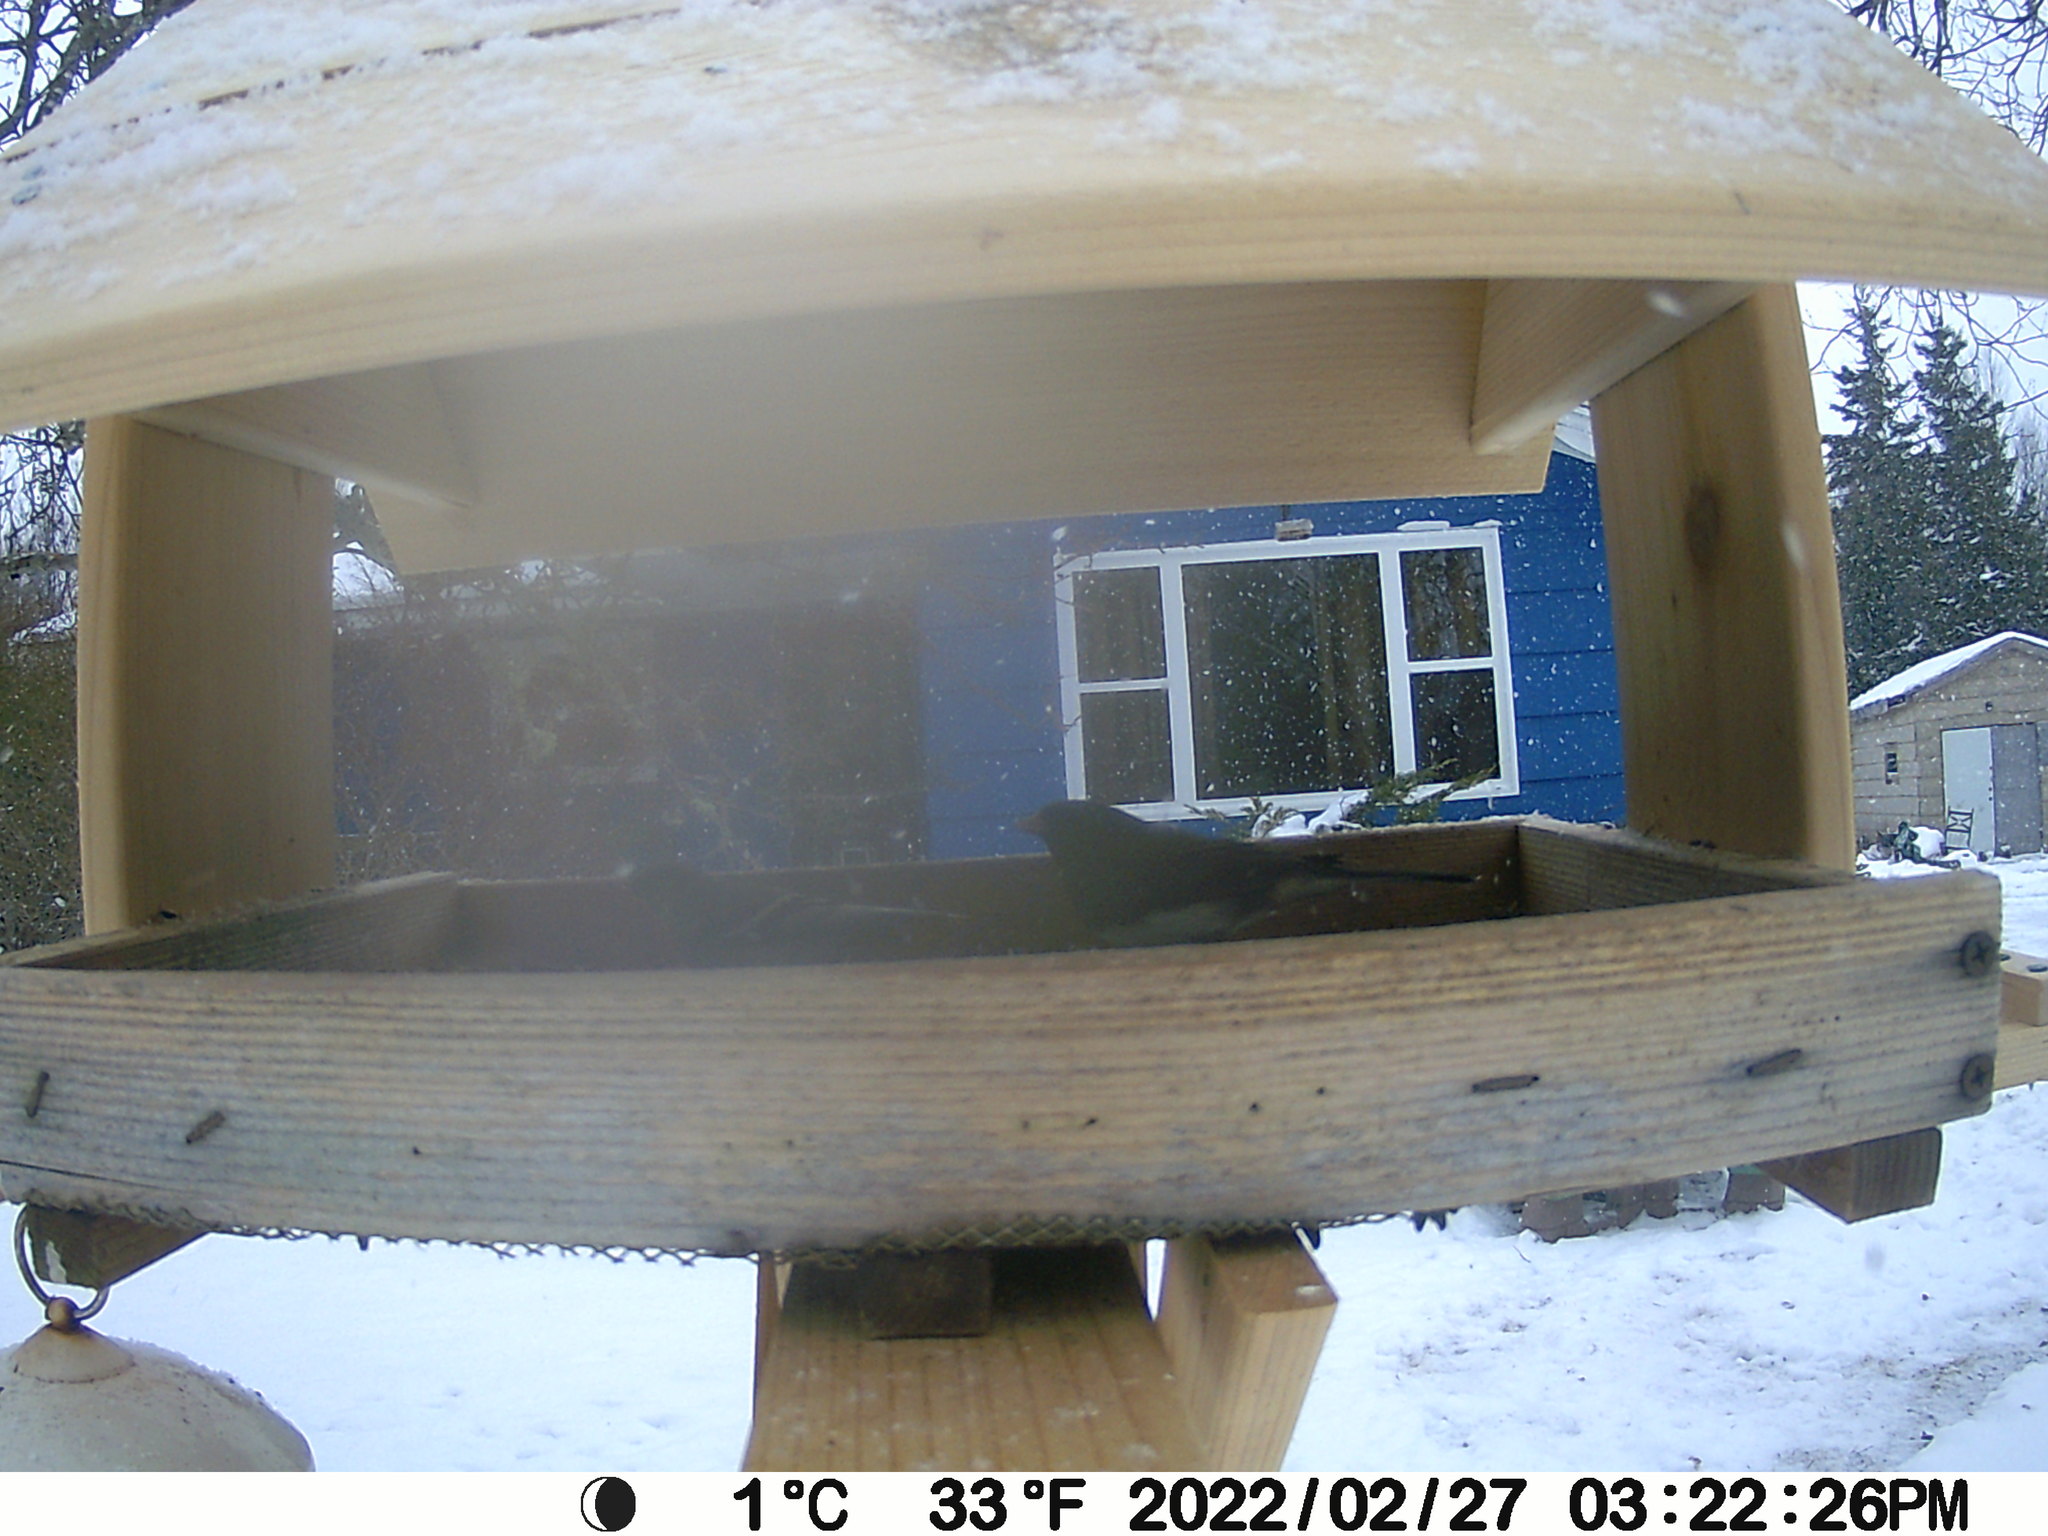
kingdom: Animalia
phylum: Chordata
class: Aves
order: Passeriformes
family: Passerellidae
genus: Junco
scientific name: Junco hyemalis
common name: Dark-eyed junco
